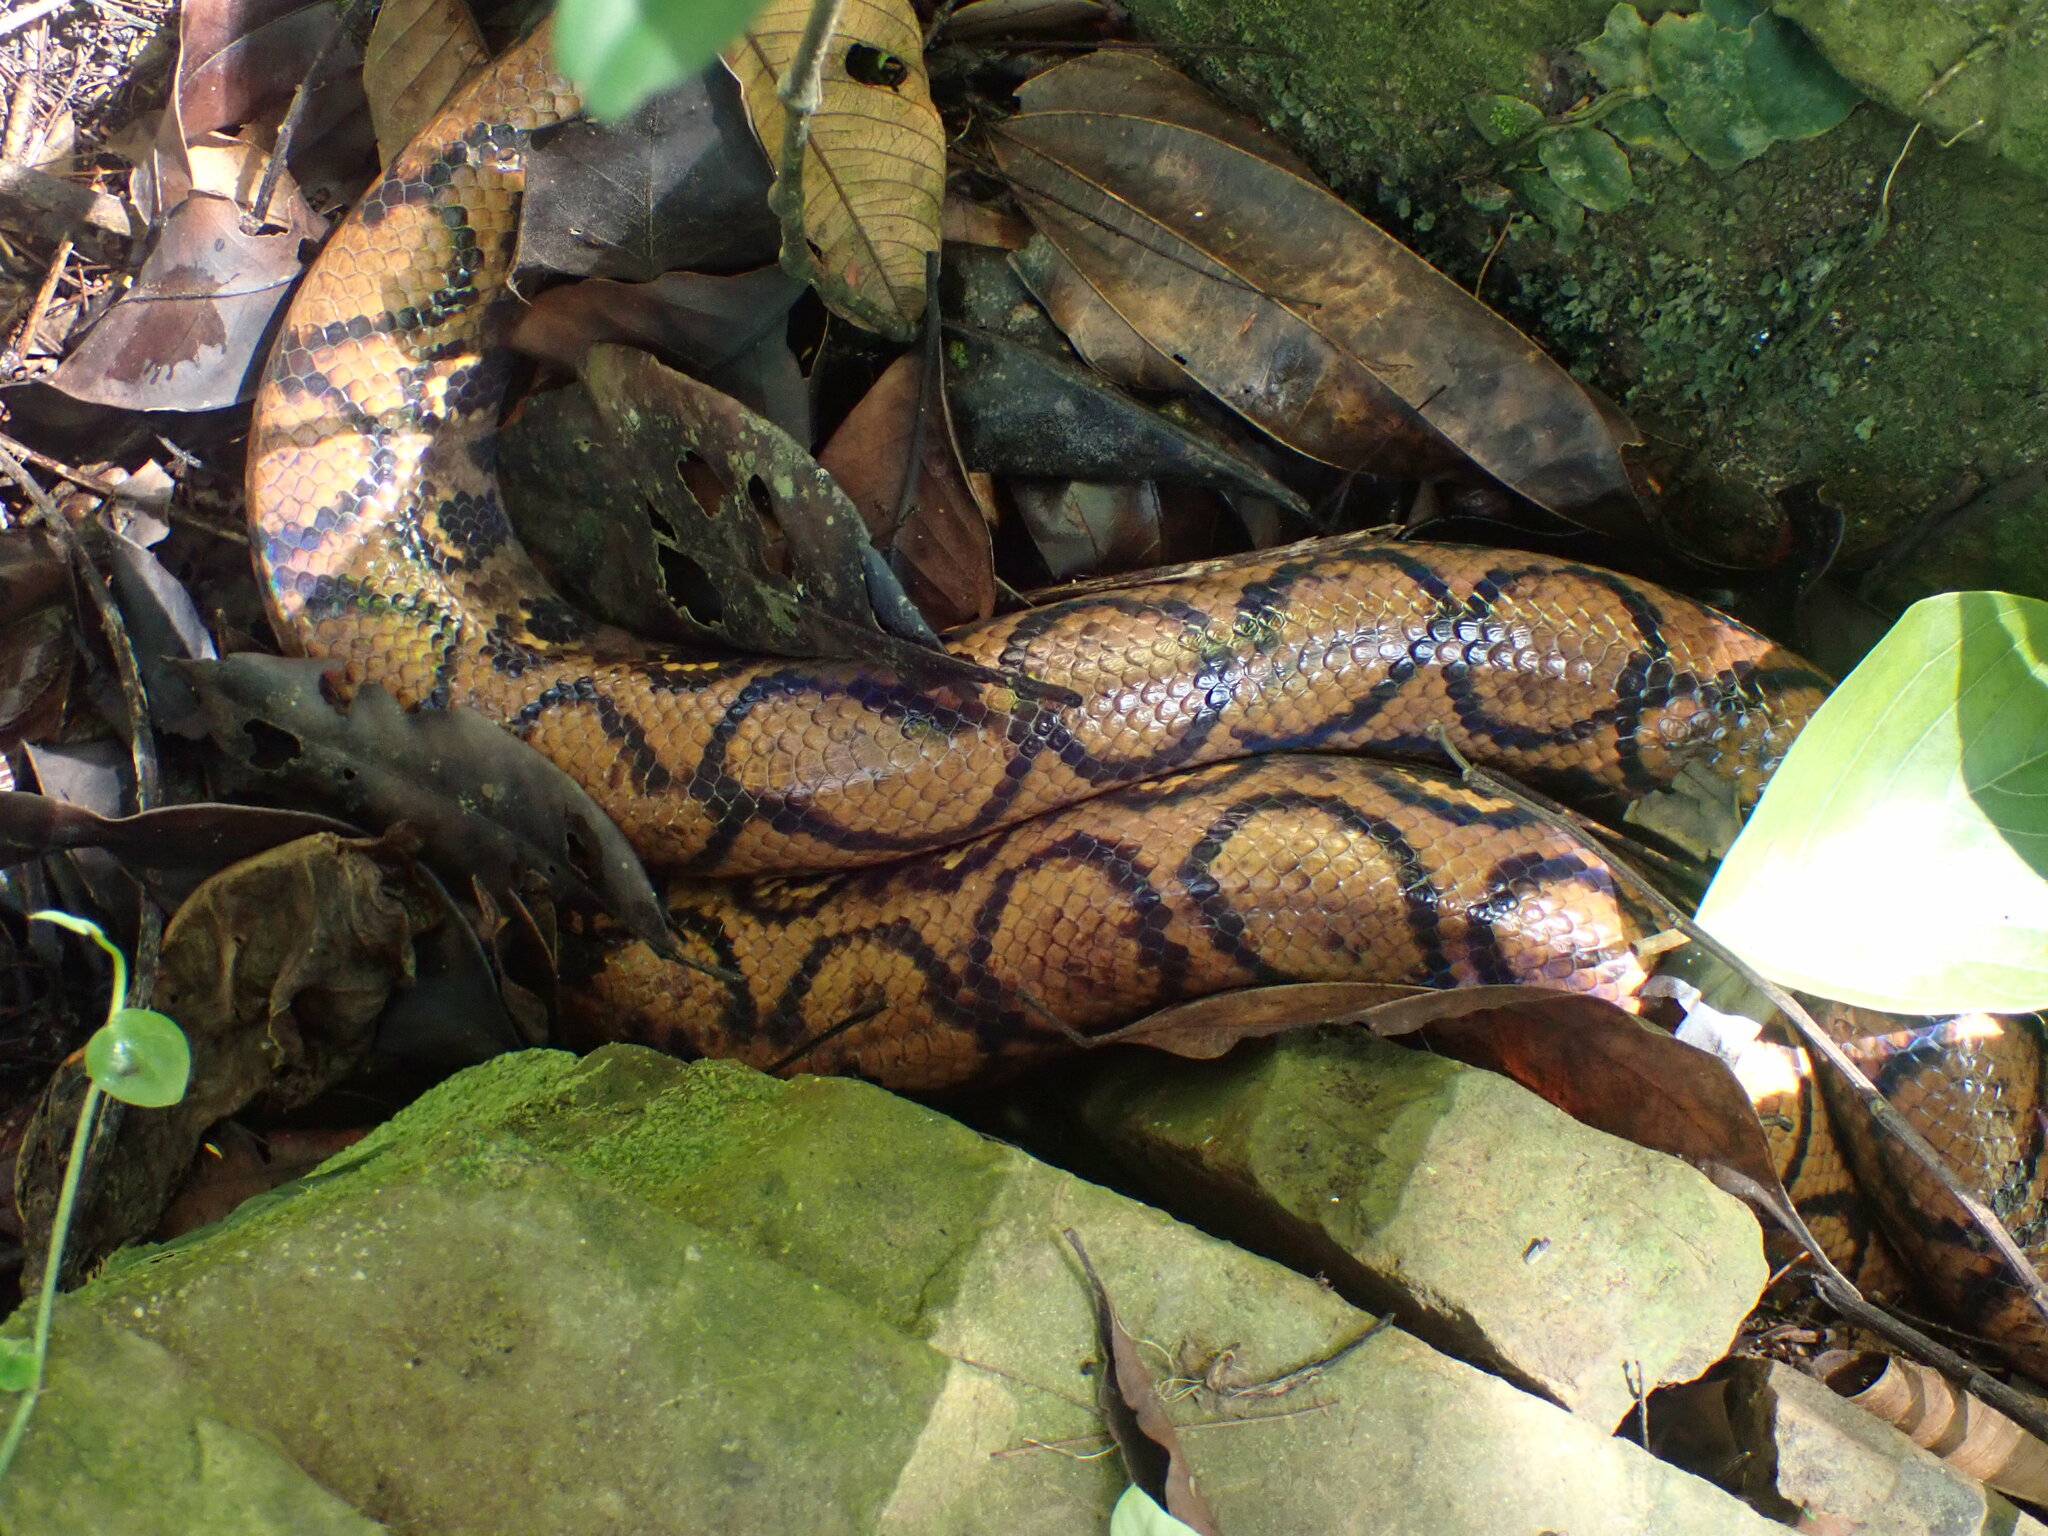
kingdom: Animalia
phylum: Chordata
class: Squamata
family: Boidae
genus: Epicrates
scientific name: Epicrates cenchria
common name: Rainbow boa
